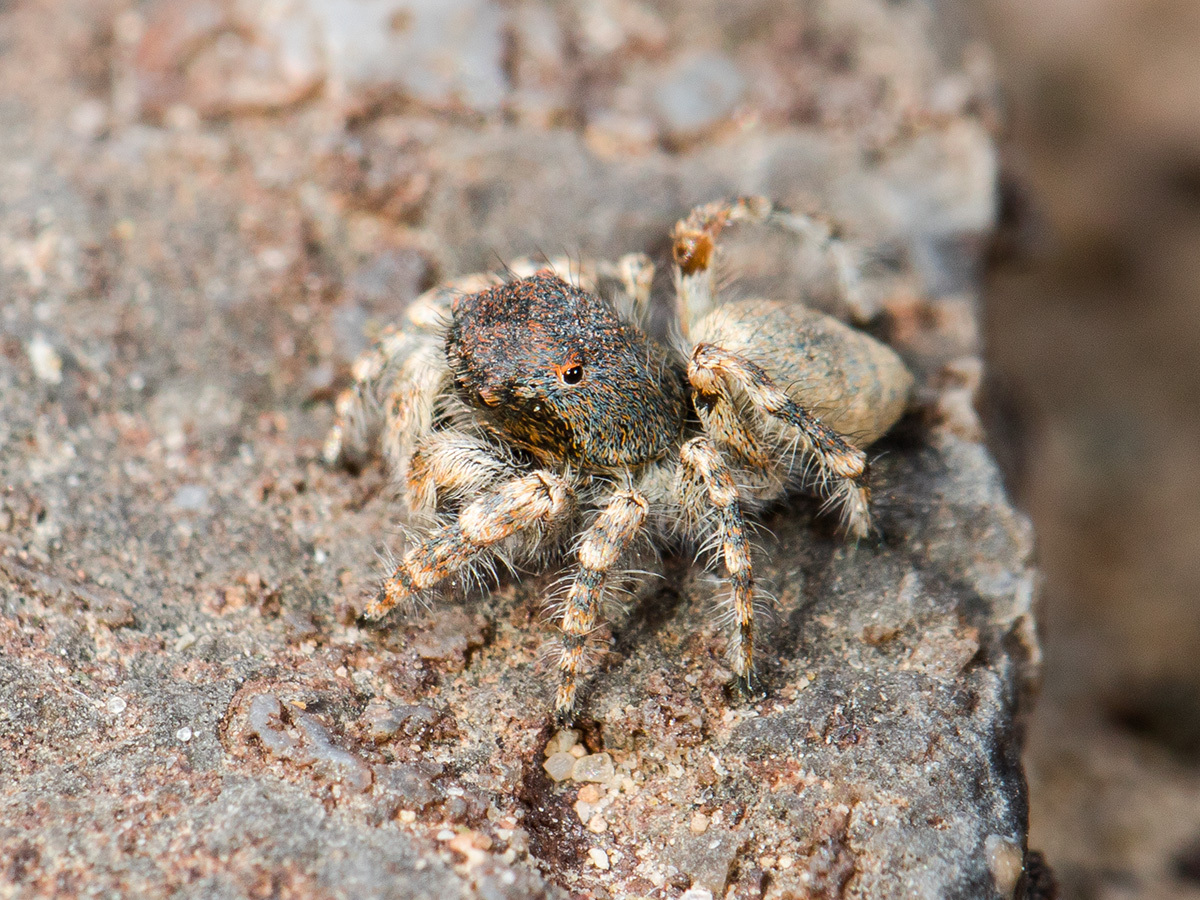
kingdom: Animalia
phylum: Arthropoda
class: Arachnida
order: Araneae
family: Salticidae
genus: Yllenus
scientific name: Yllenus zyuzini
